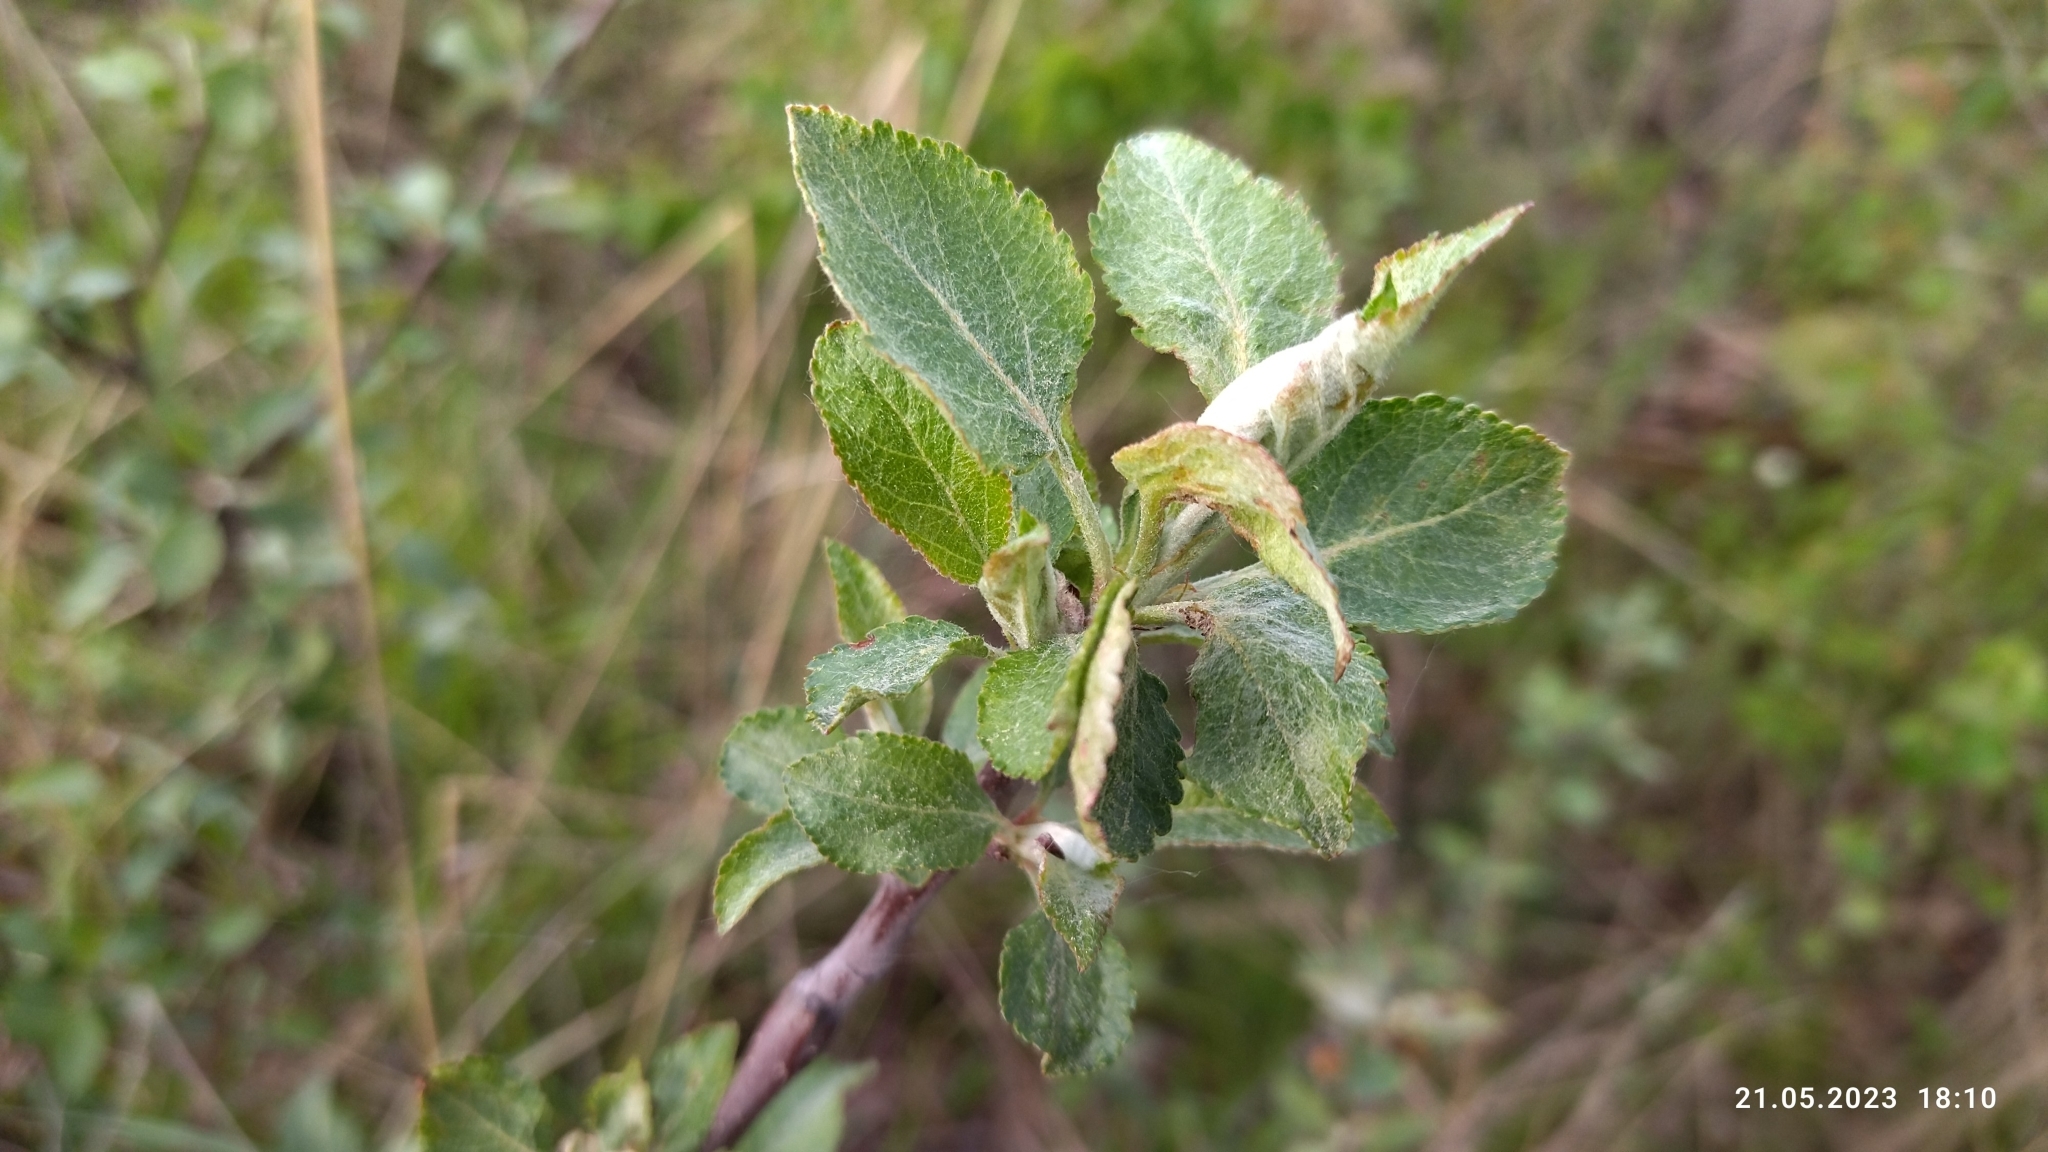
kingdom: Plantae
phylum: Tracheophyta
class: Magnoliopsida
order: Rosales
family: Rosaceae
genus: Malus
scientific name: Malus domestica
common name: Apple
